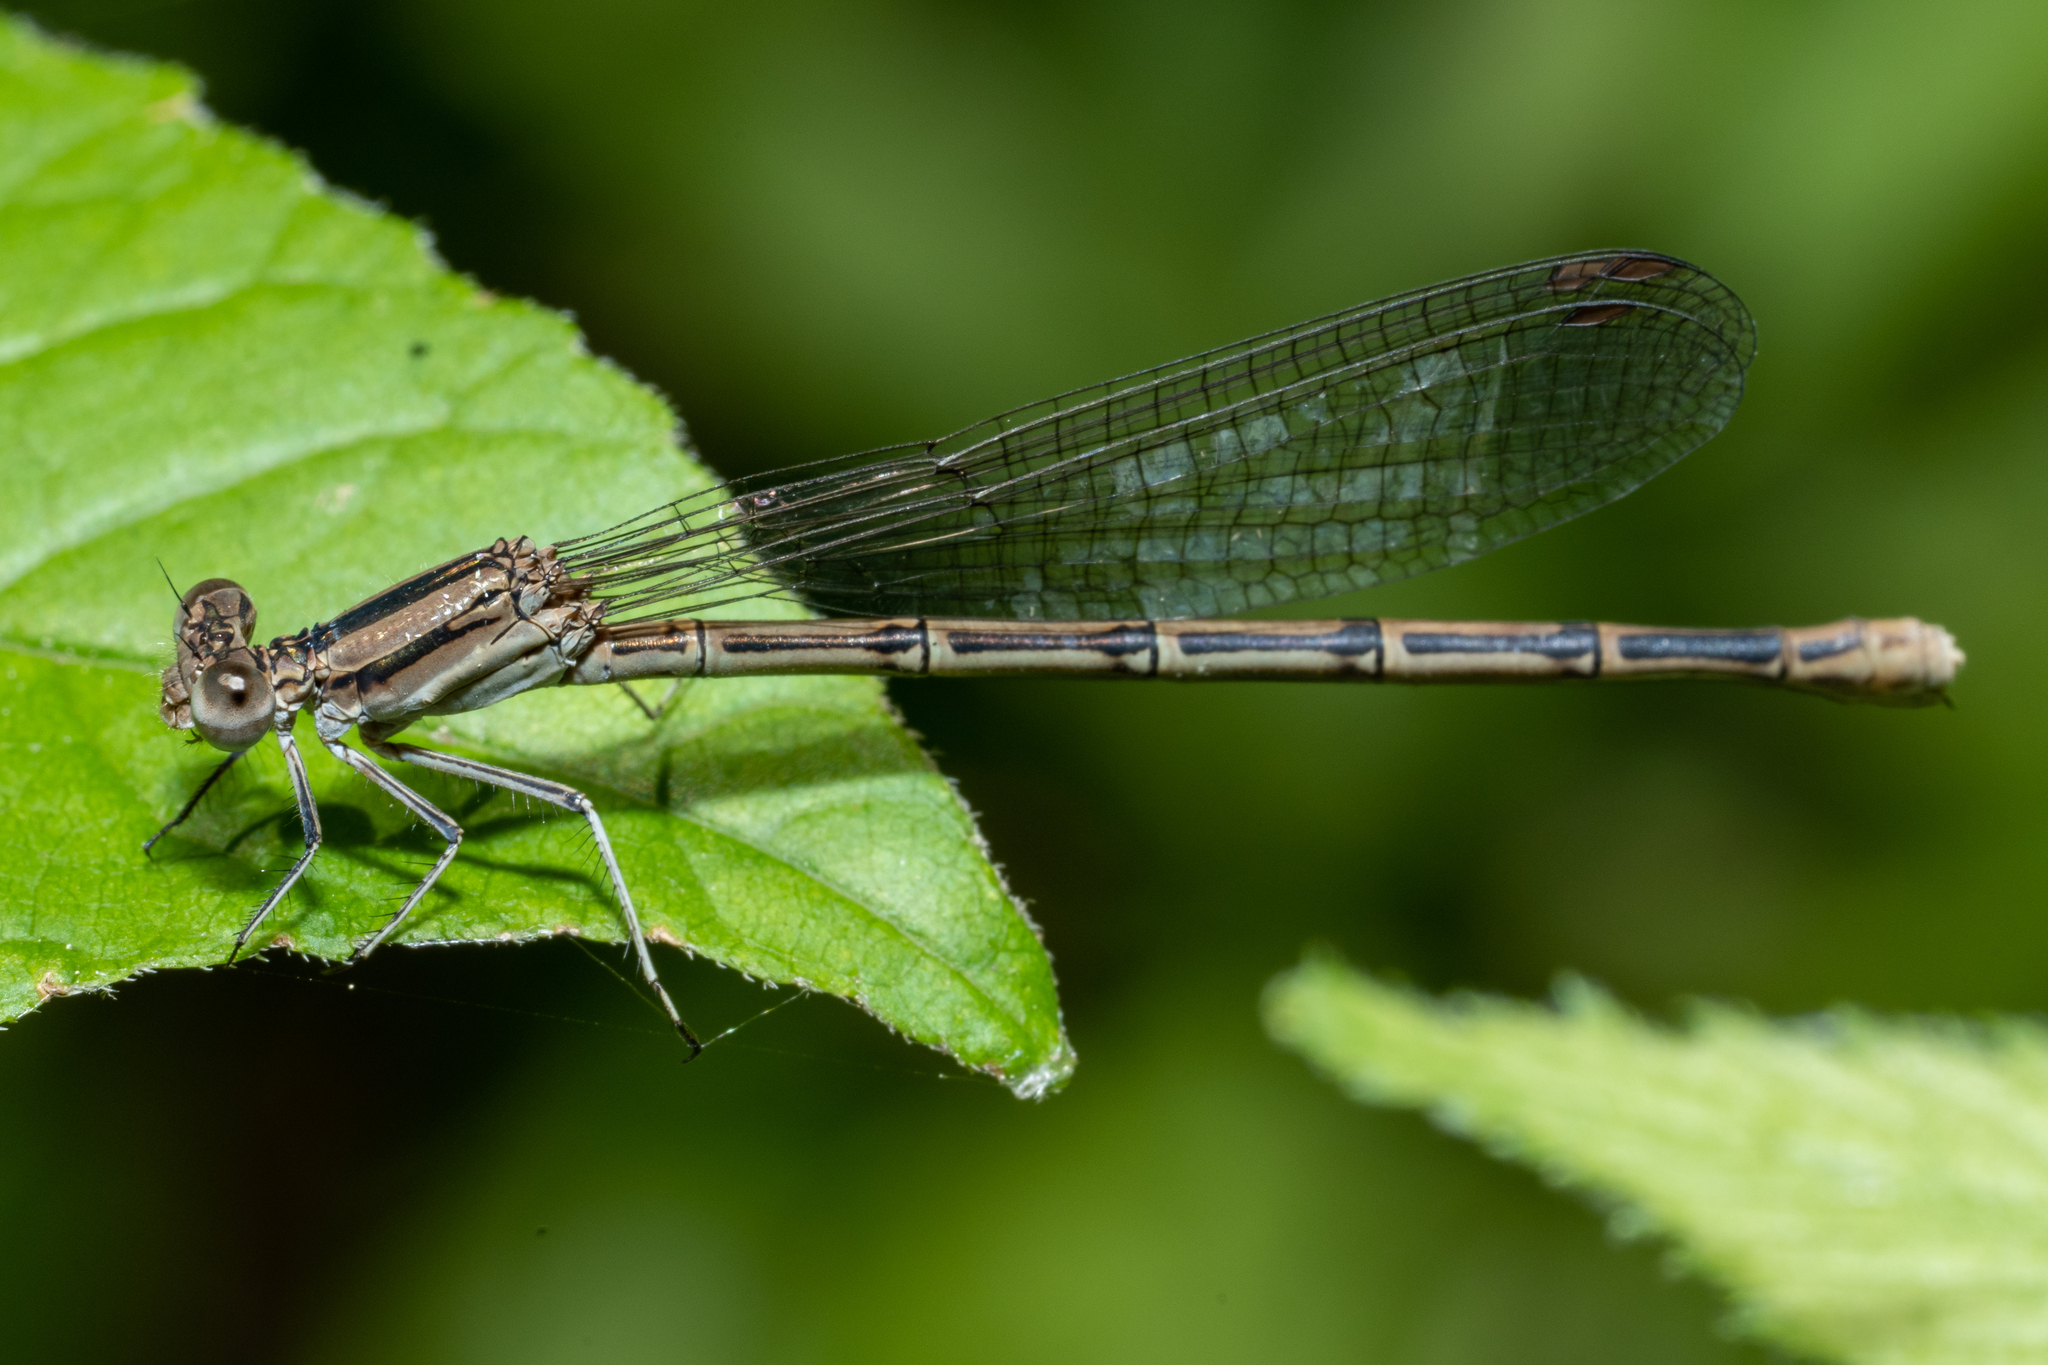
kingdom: Animalia
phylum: Arthropoda
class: Insecta
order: Odonata
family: Coenagrionidae
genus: Argia
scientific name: Argia fumipennis
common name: Variable dancer
